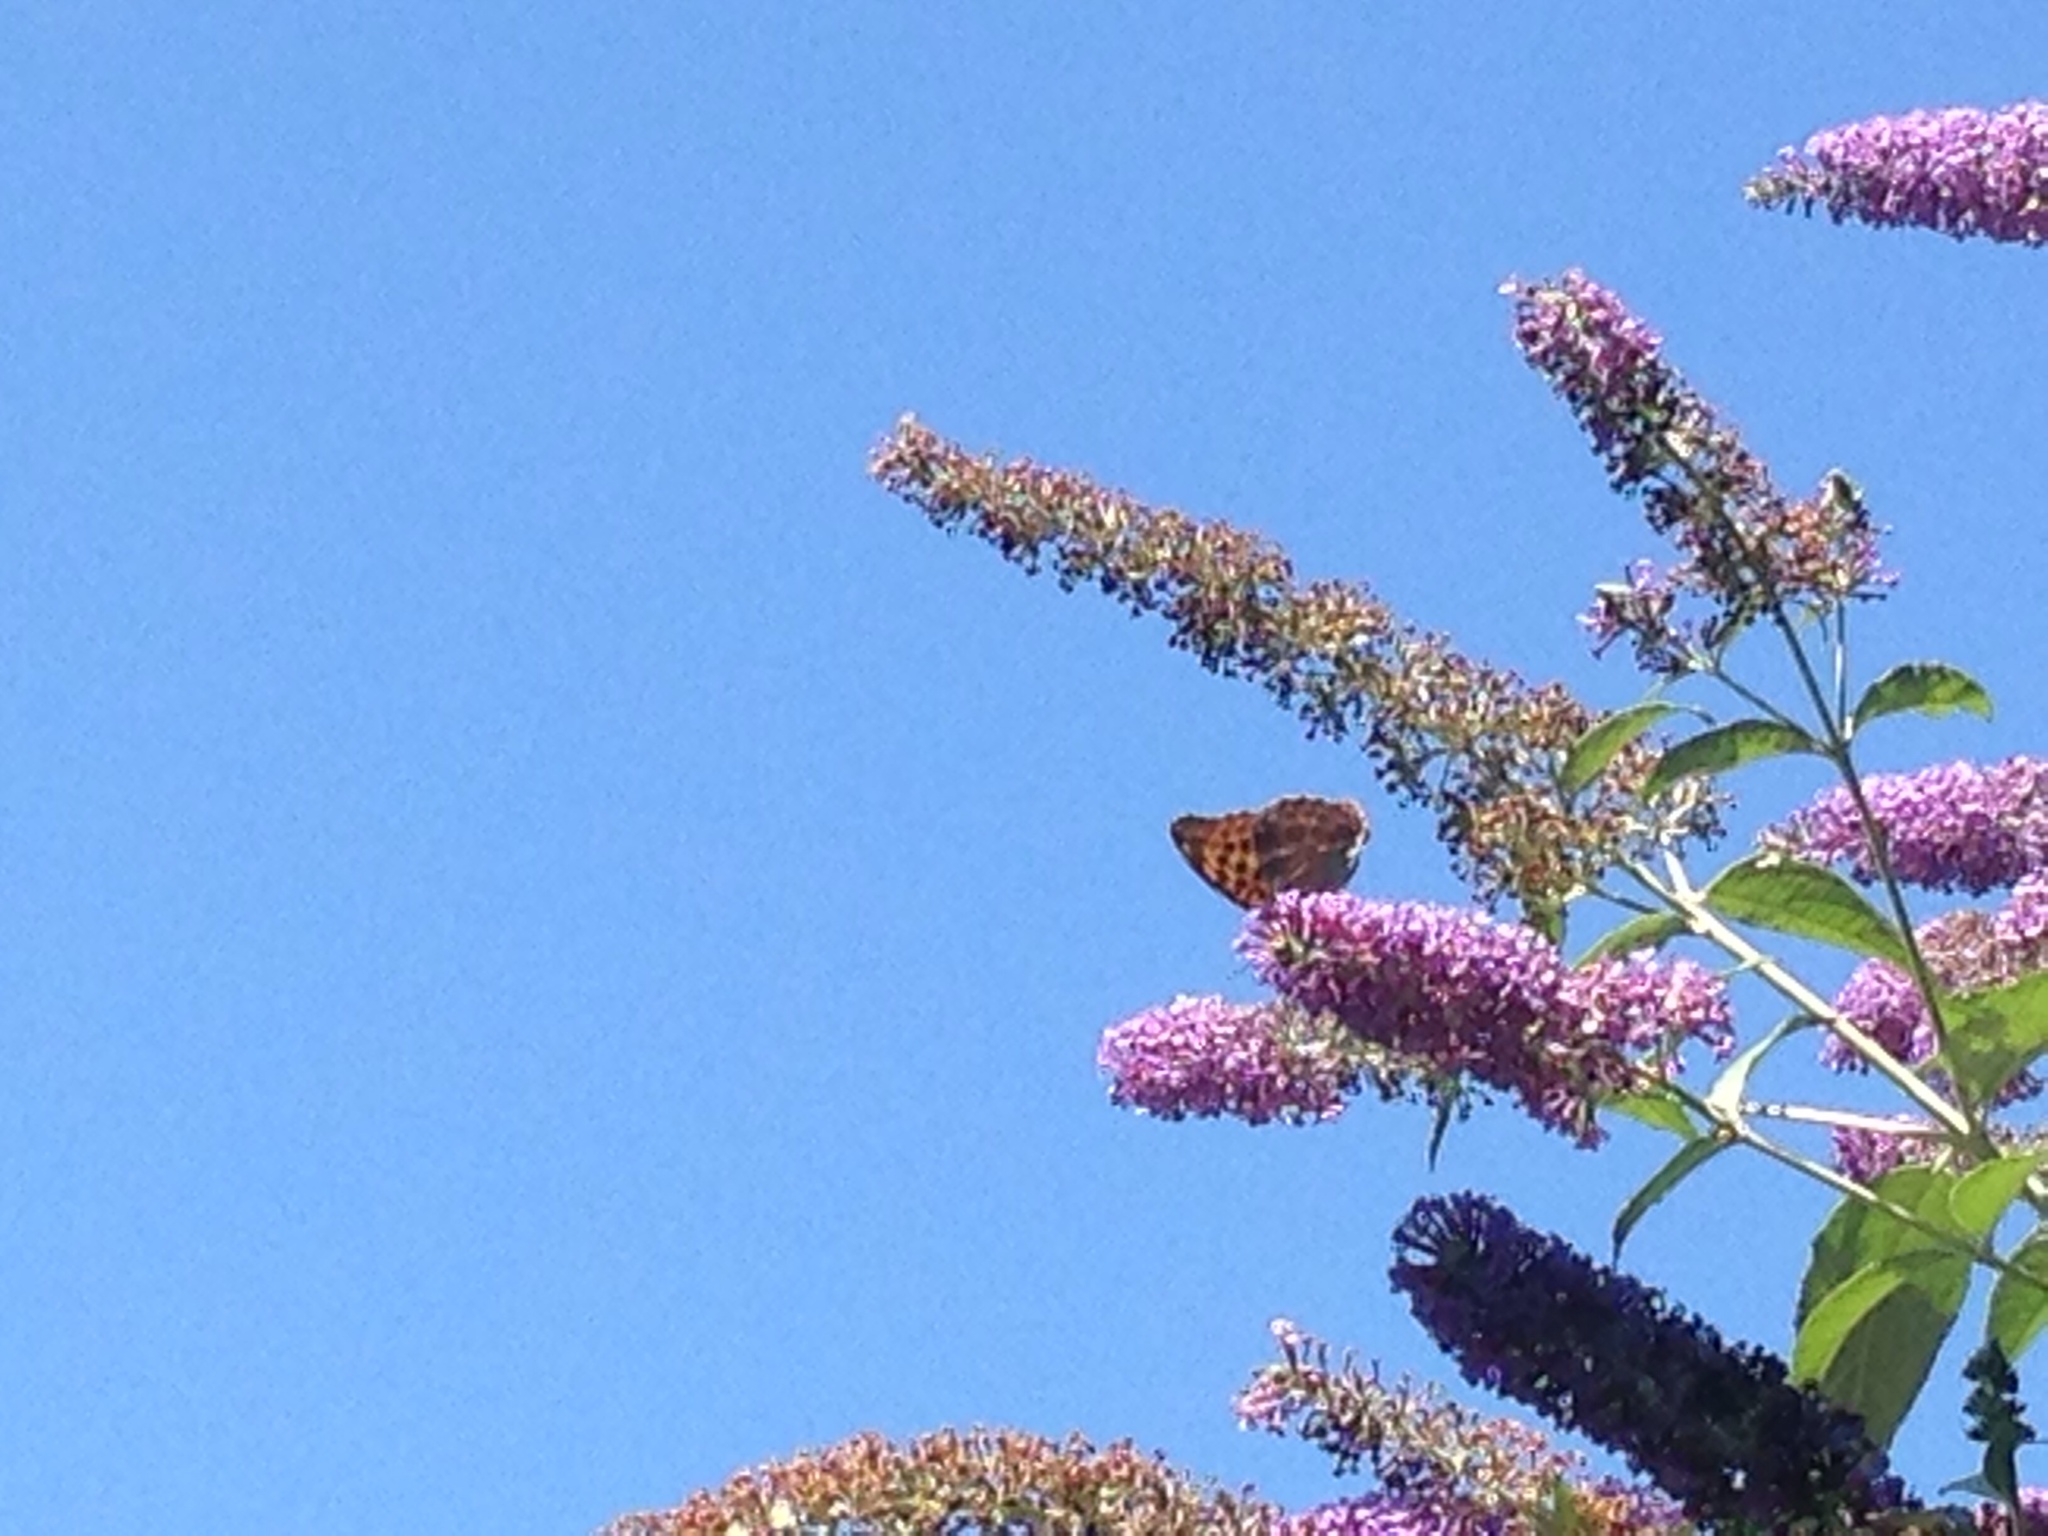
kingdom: Animalia
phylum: Arthropoda
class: Insecta
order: Lepidoptera
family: Nymphalidae
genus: Argynnis
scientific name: Argynnis paphia
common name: Silver-washed fritillary
